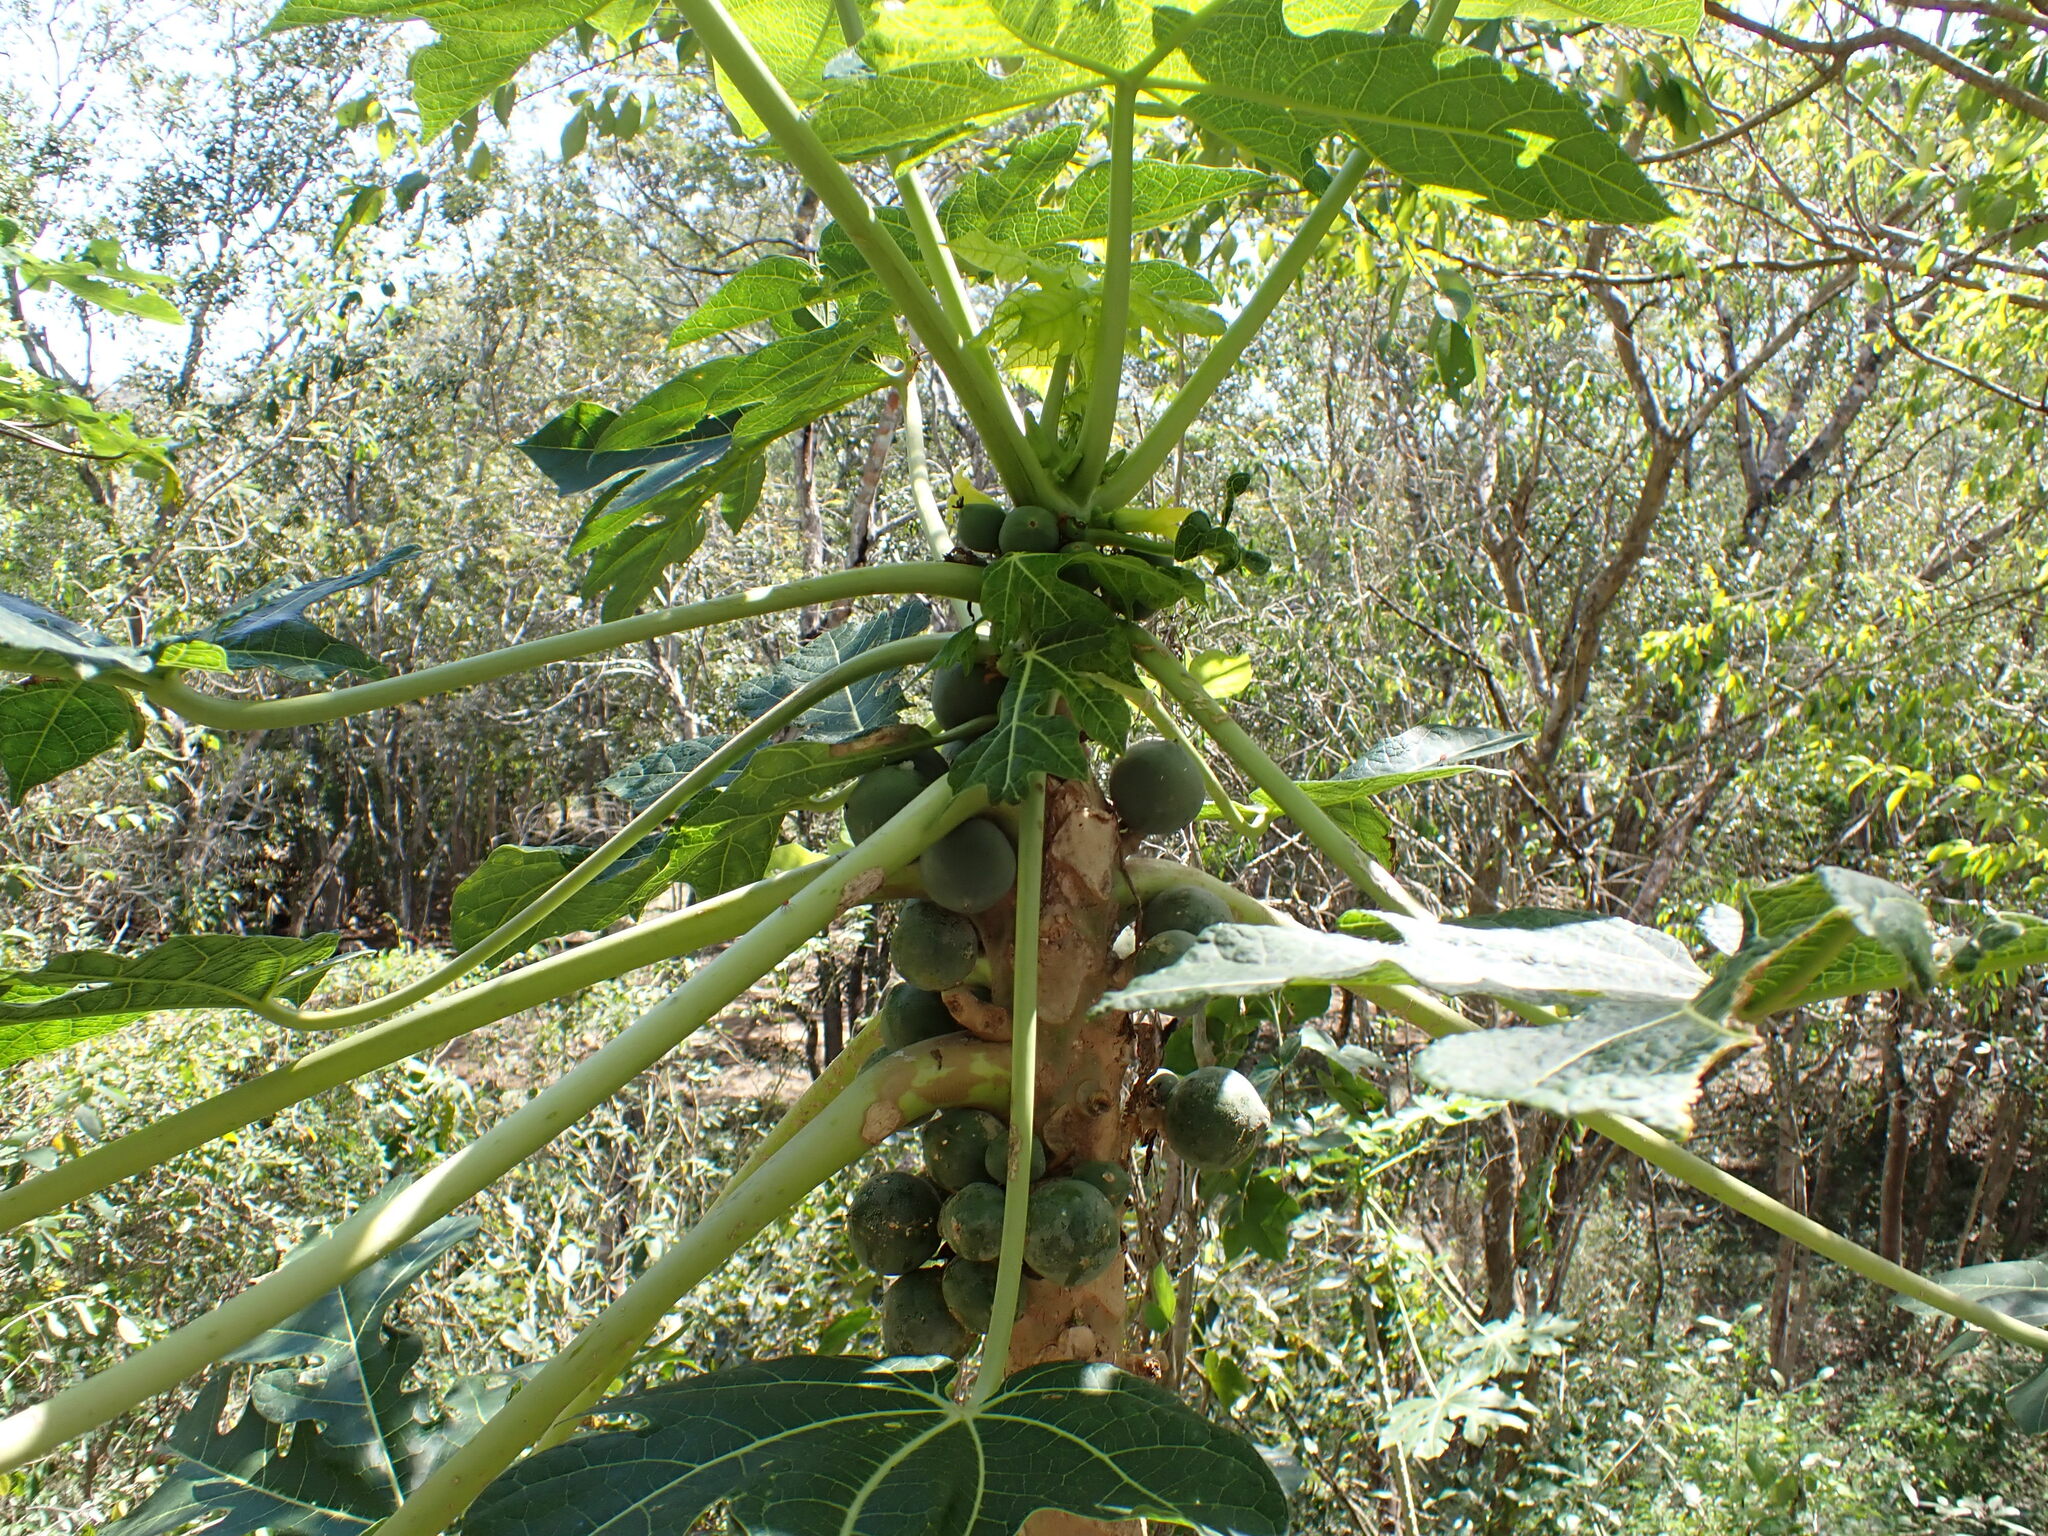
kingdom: Plantae
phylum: Tracheophyta
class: Magnoliopsida
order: Brassicales
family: Caricaceae
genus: Carica
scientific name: Carica papaya
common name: Papaya
